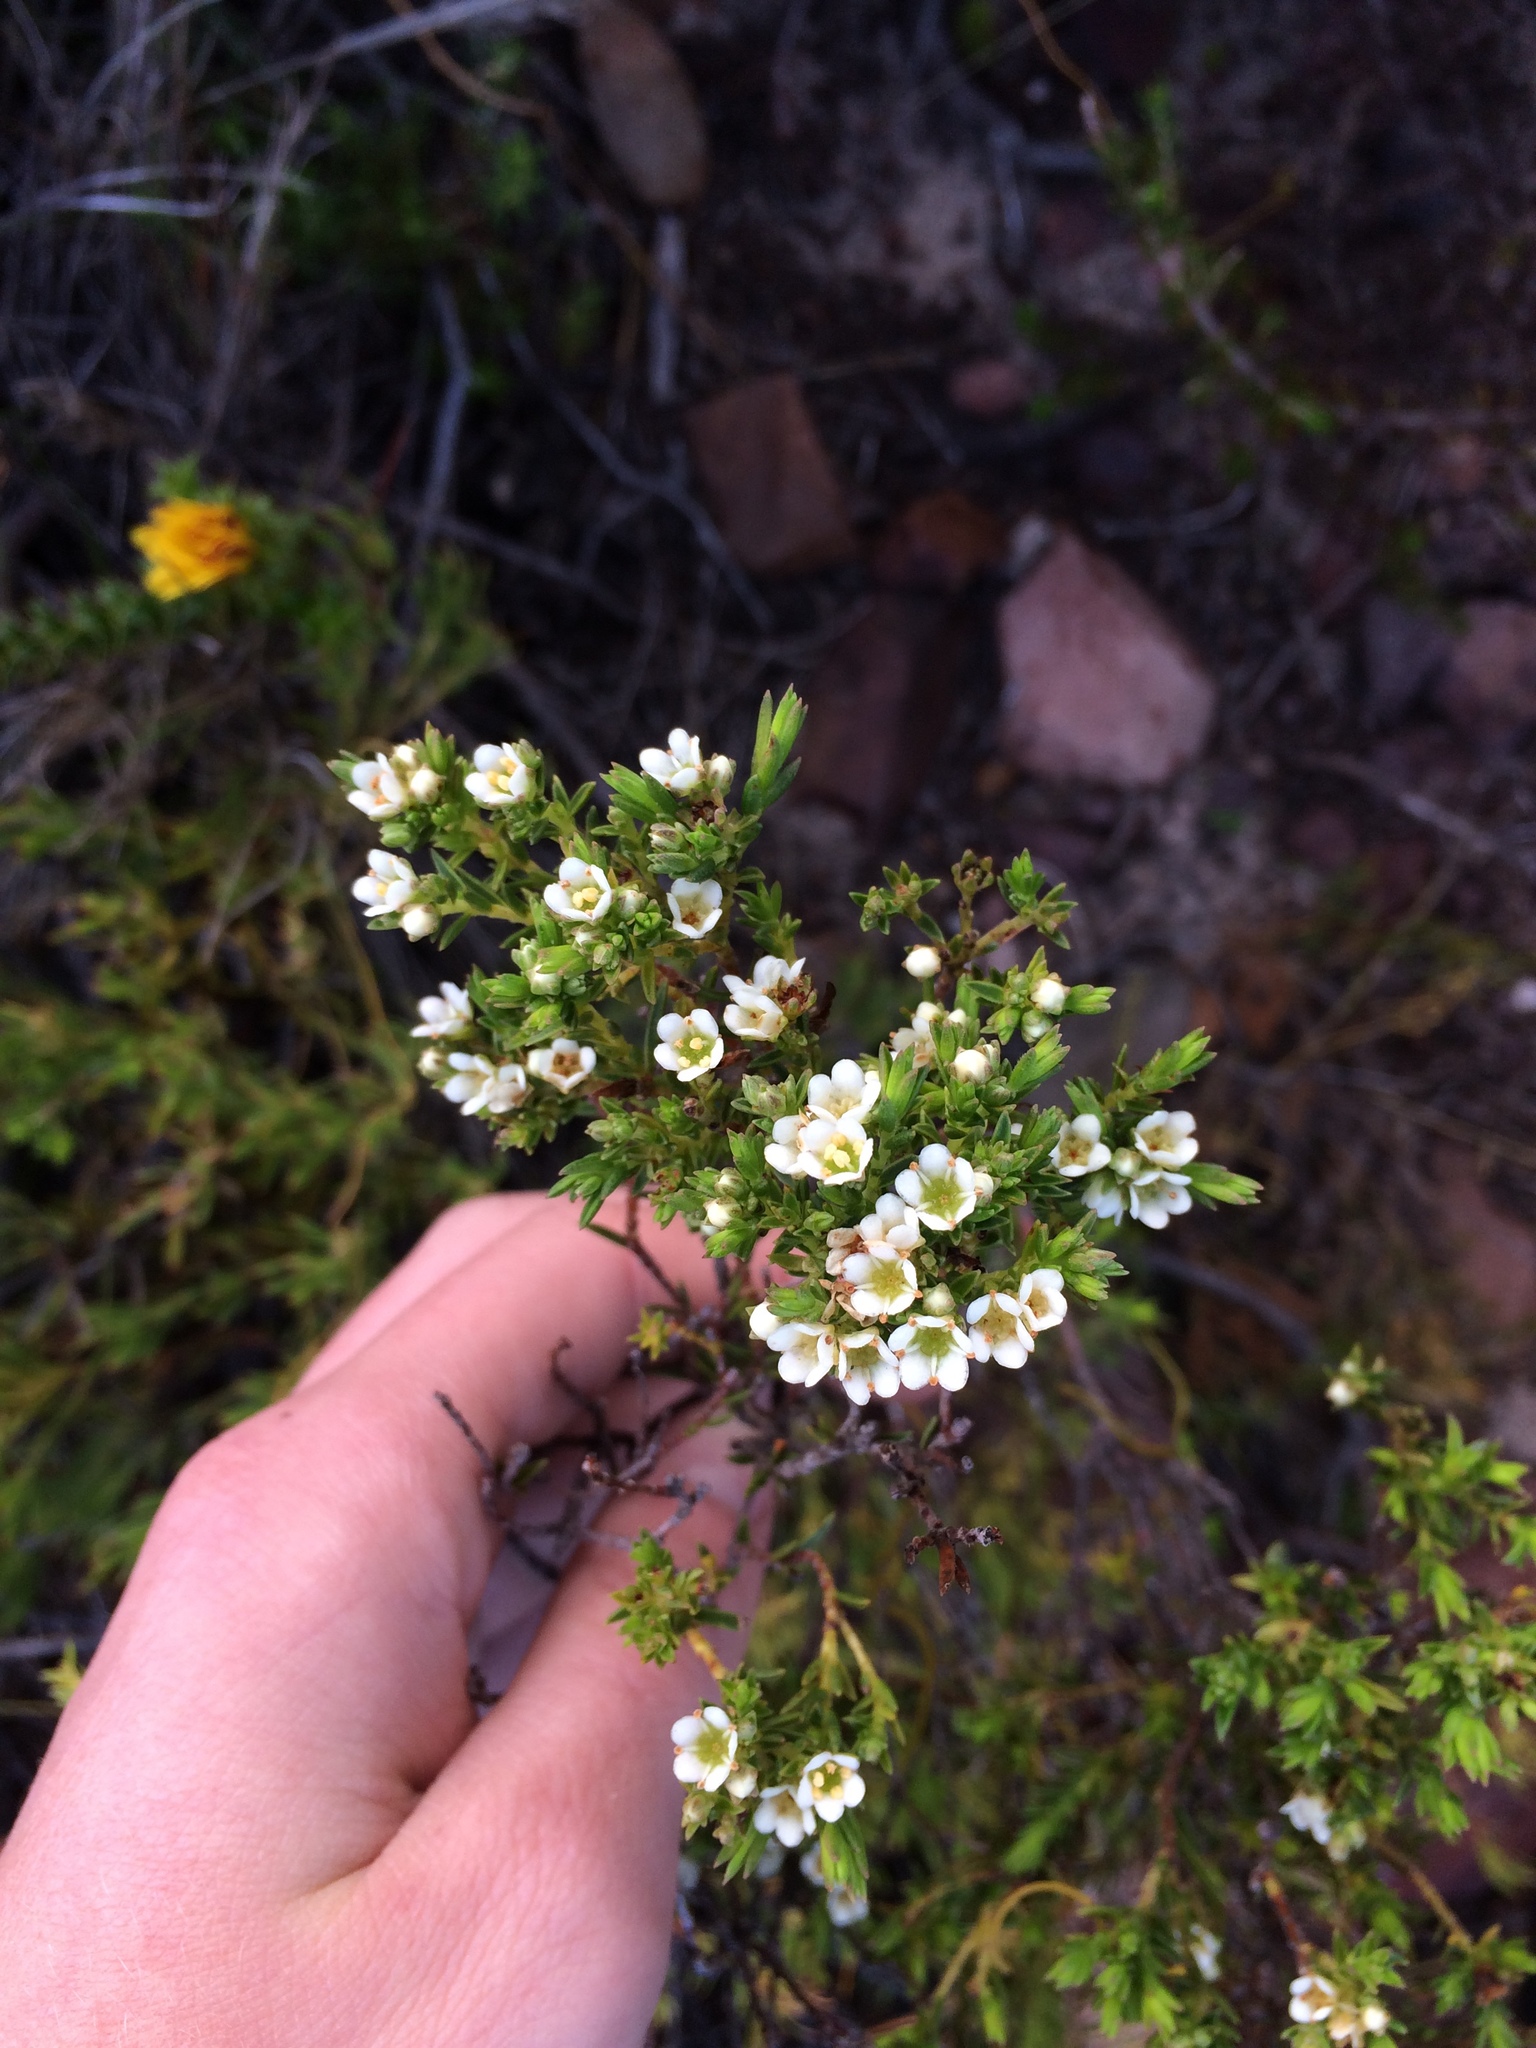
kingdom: Plantae
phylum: Tracheophyta
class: Magnoliopsida
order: Sapindales
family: Rutaceae
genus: Diosma
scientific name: Diosma hirsuta
